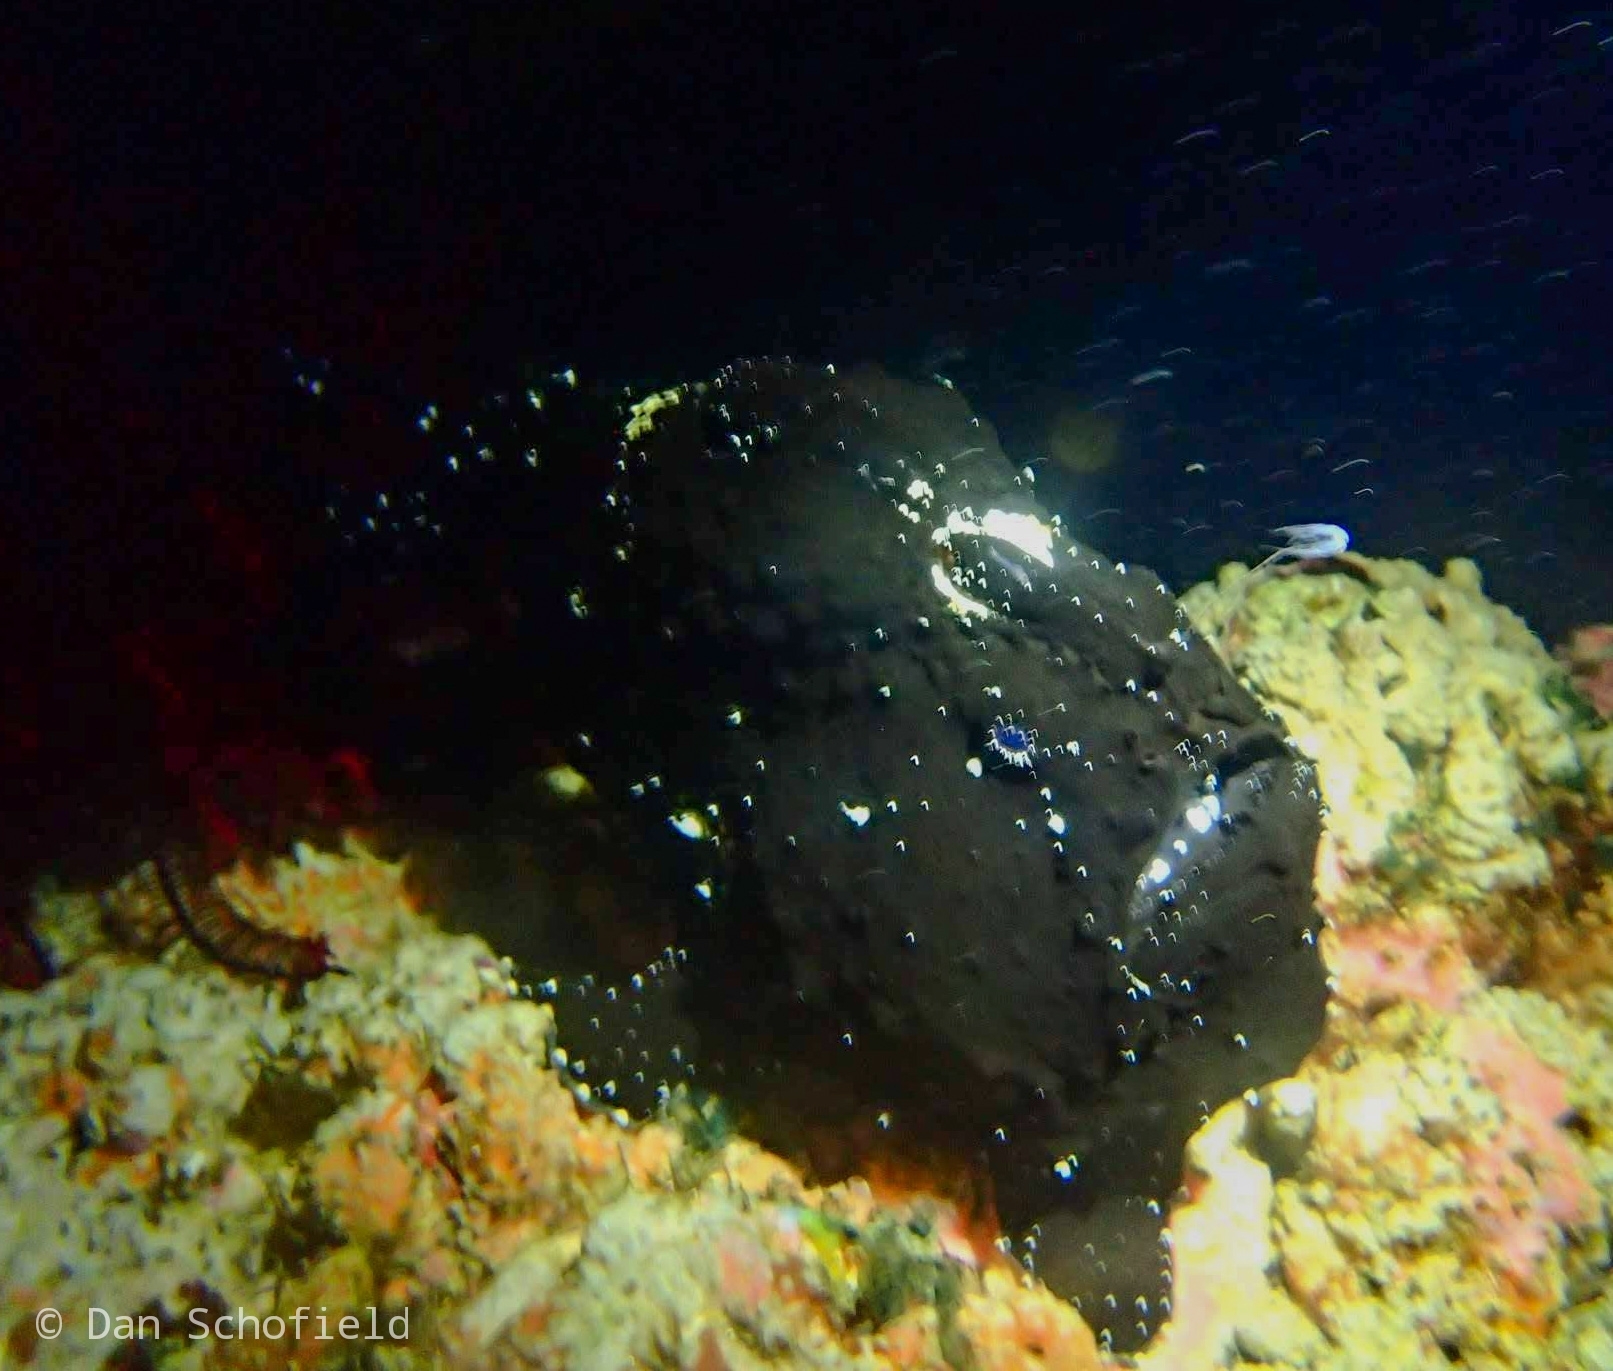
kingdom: Animalia
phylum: Chordata
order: Lophiiformes
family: Antennariidae
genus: Antennarius
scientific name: Antennarius commerson
